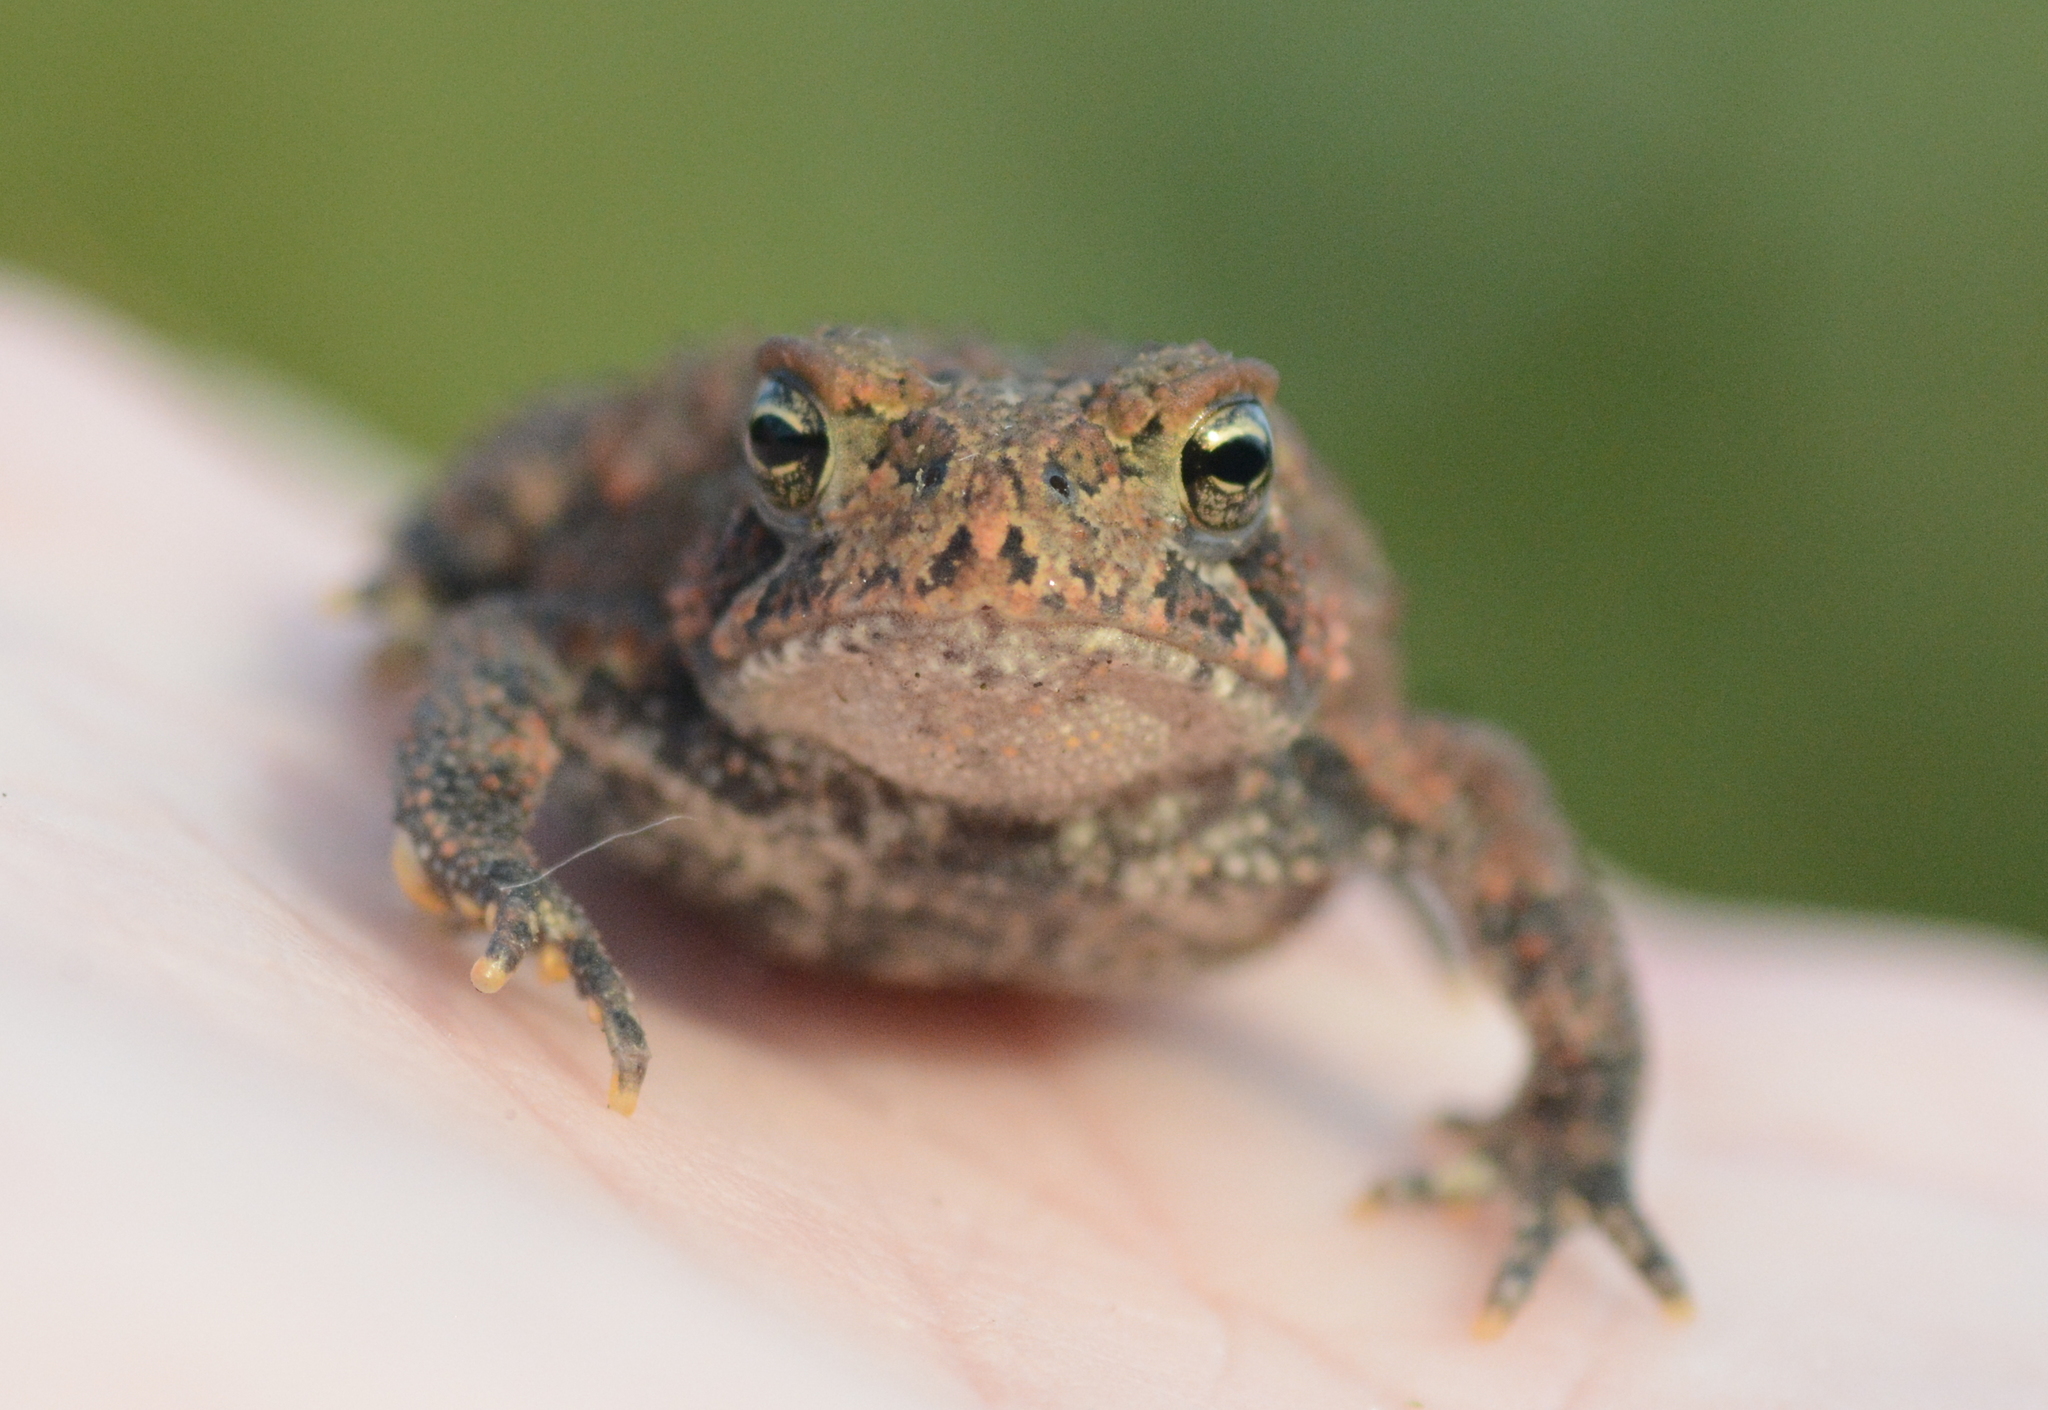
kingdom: Animalia
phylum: Chordata
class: Amphibia
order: Anura
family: Bufonidae
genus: Anaxyrus
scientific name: Anaxyrus americanus
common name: American toad
